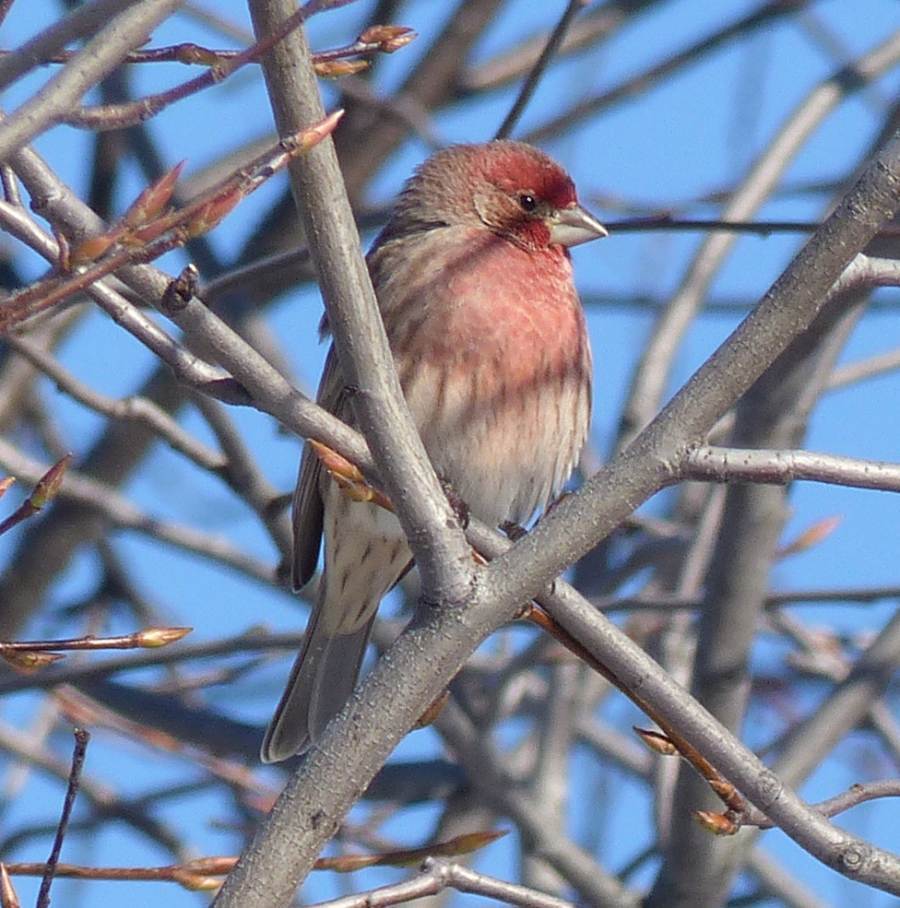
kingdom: Animalia
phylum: Chordata
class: Aves
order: Passeriformes
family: Fringillidae
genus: Haemorhous
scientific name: Haemorhous mexicanus
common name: House finch
